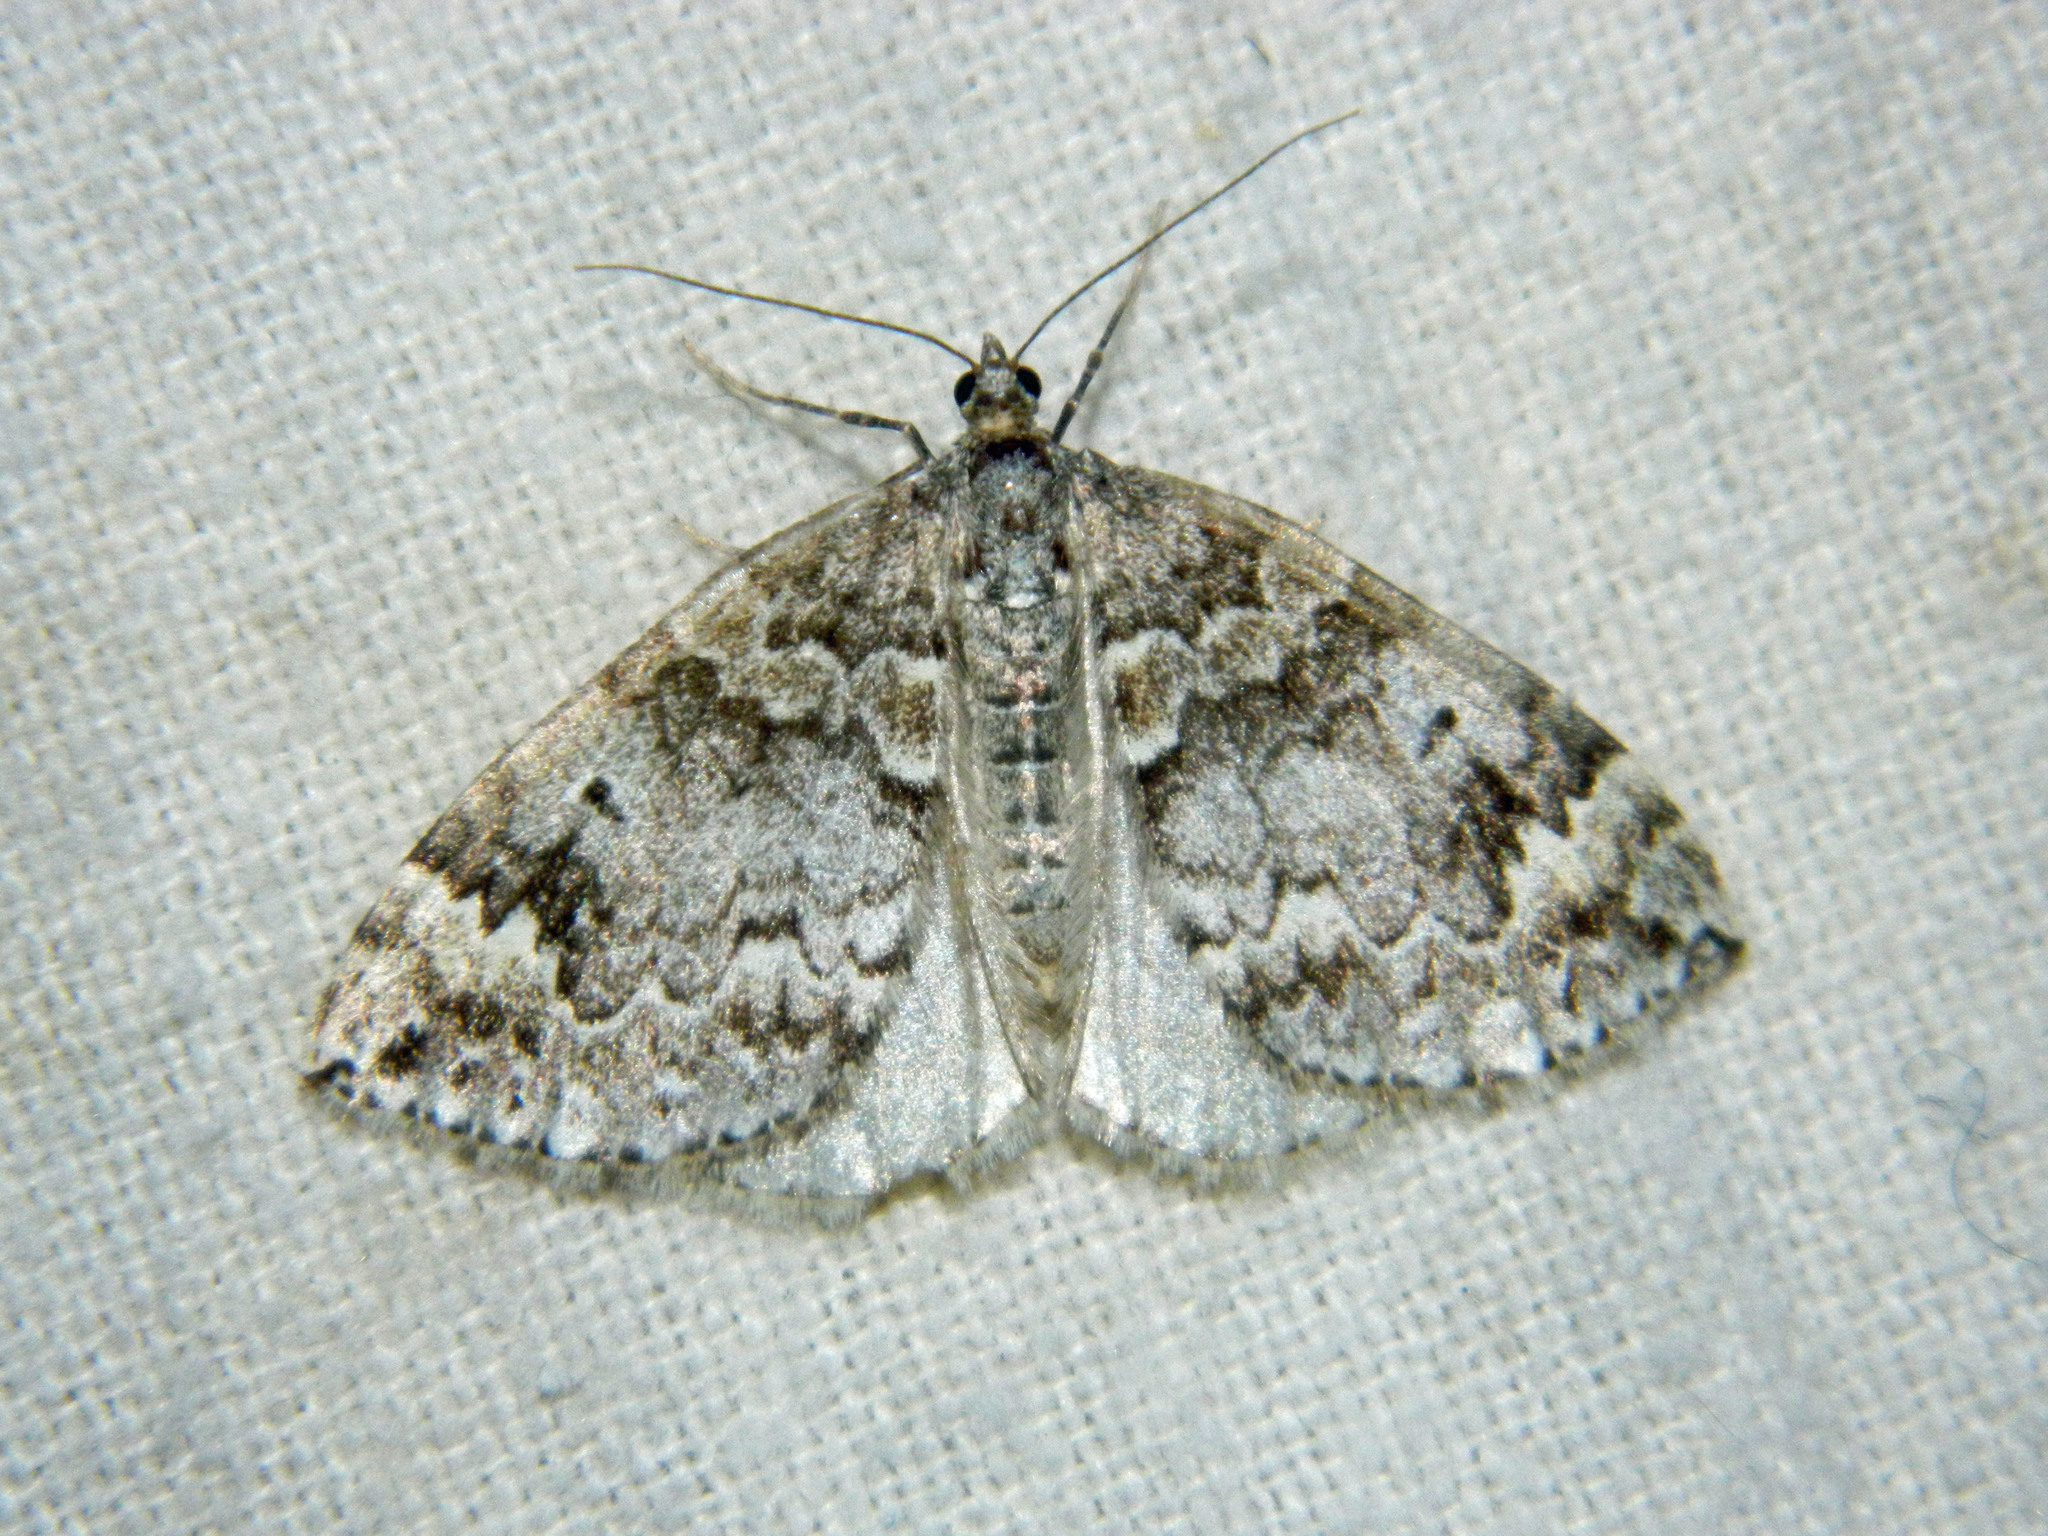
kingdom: Animalia
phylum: Arthropoda
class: Insecta
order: Lepidoptera
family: Geometridae
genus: Dysstroma
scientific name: Dysstroma walkerata
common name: Marbled carpet
